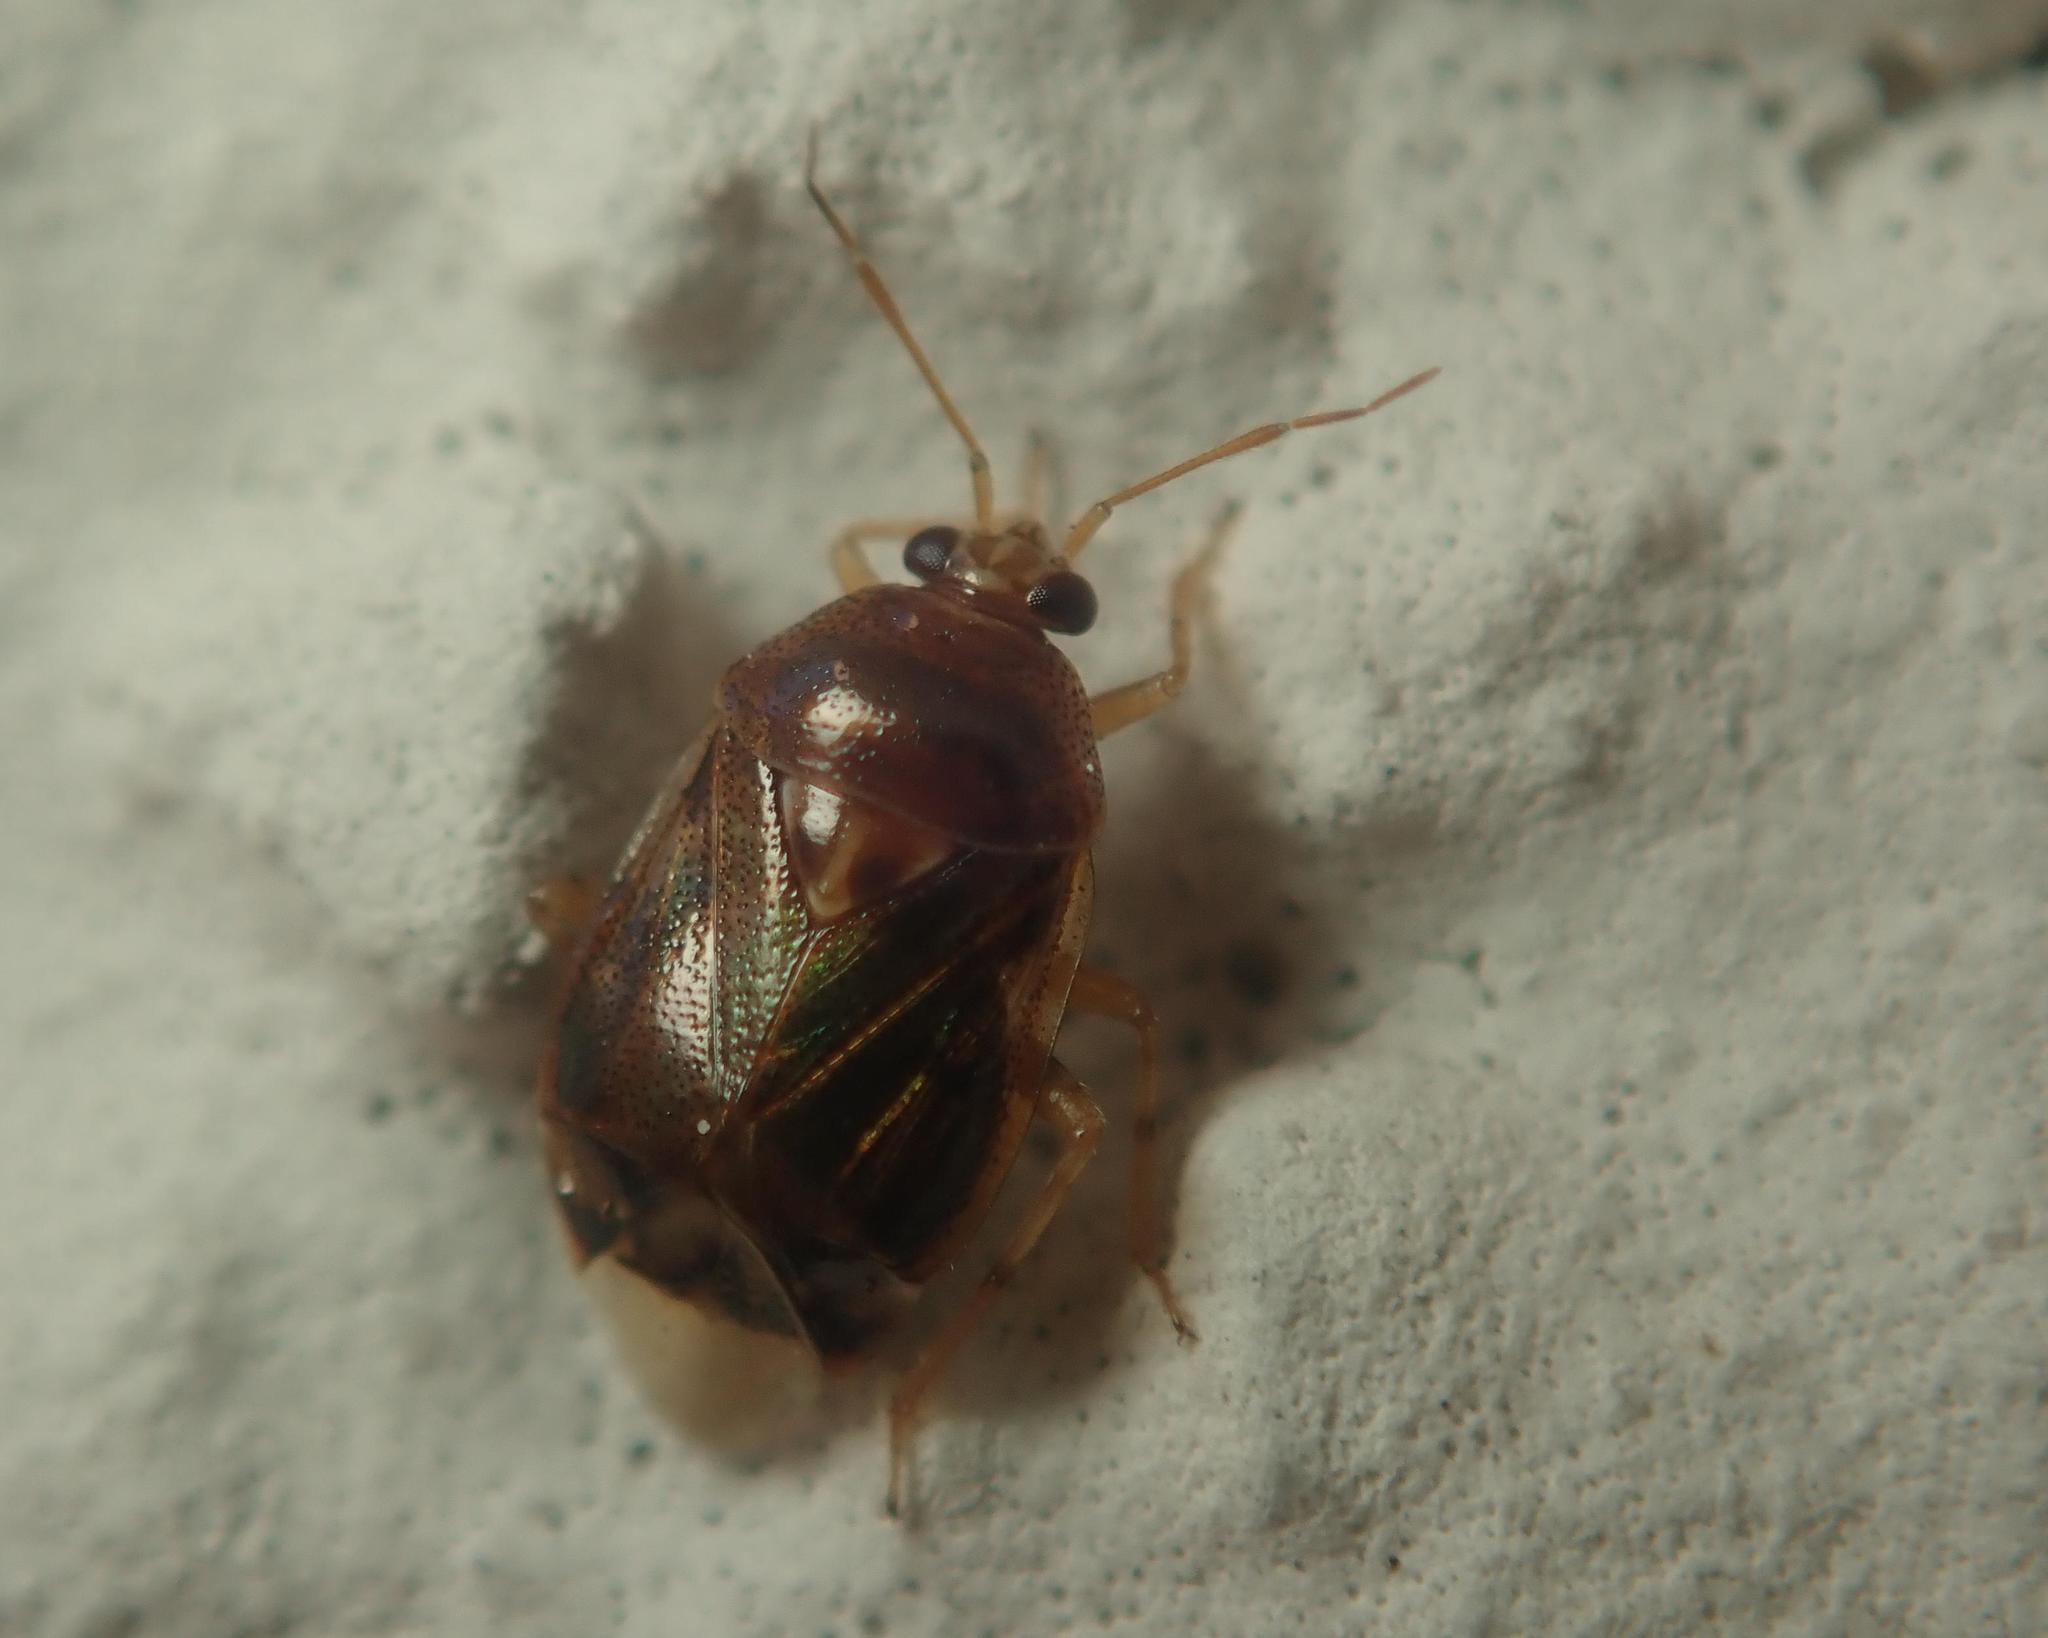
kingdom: Animalia
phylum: Arthropoda
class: Insecta
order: Hemiptera
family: Miridae
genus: Deraeocoris
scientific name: Deraeocoris lutescens
